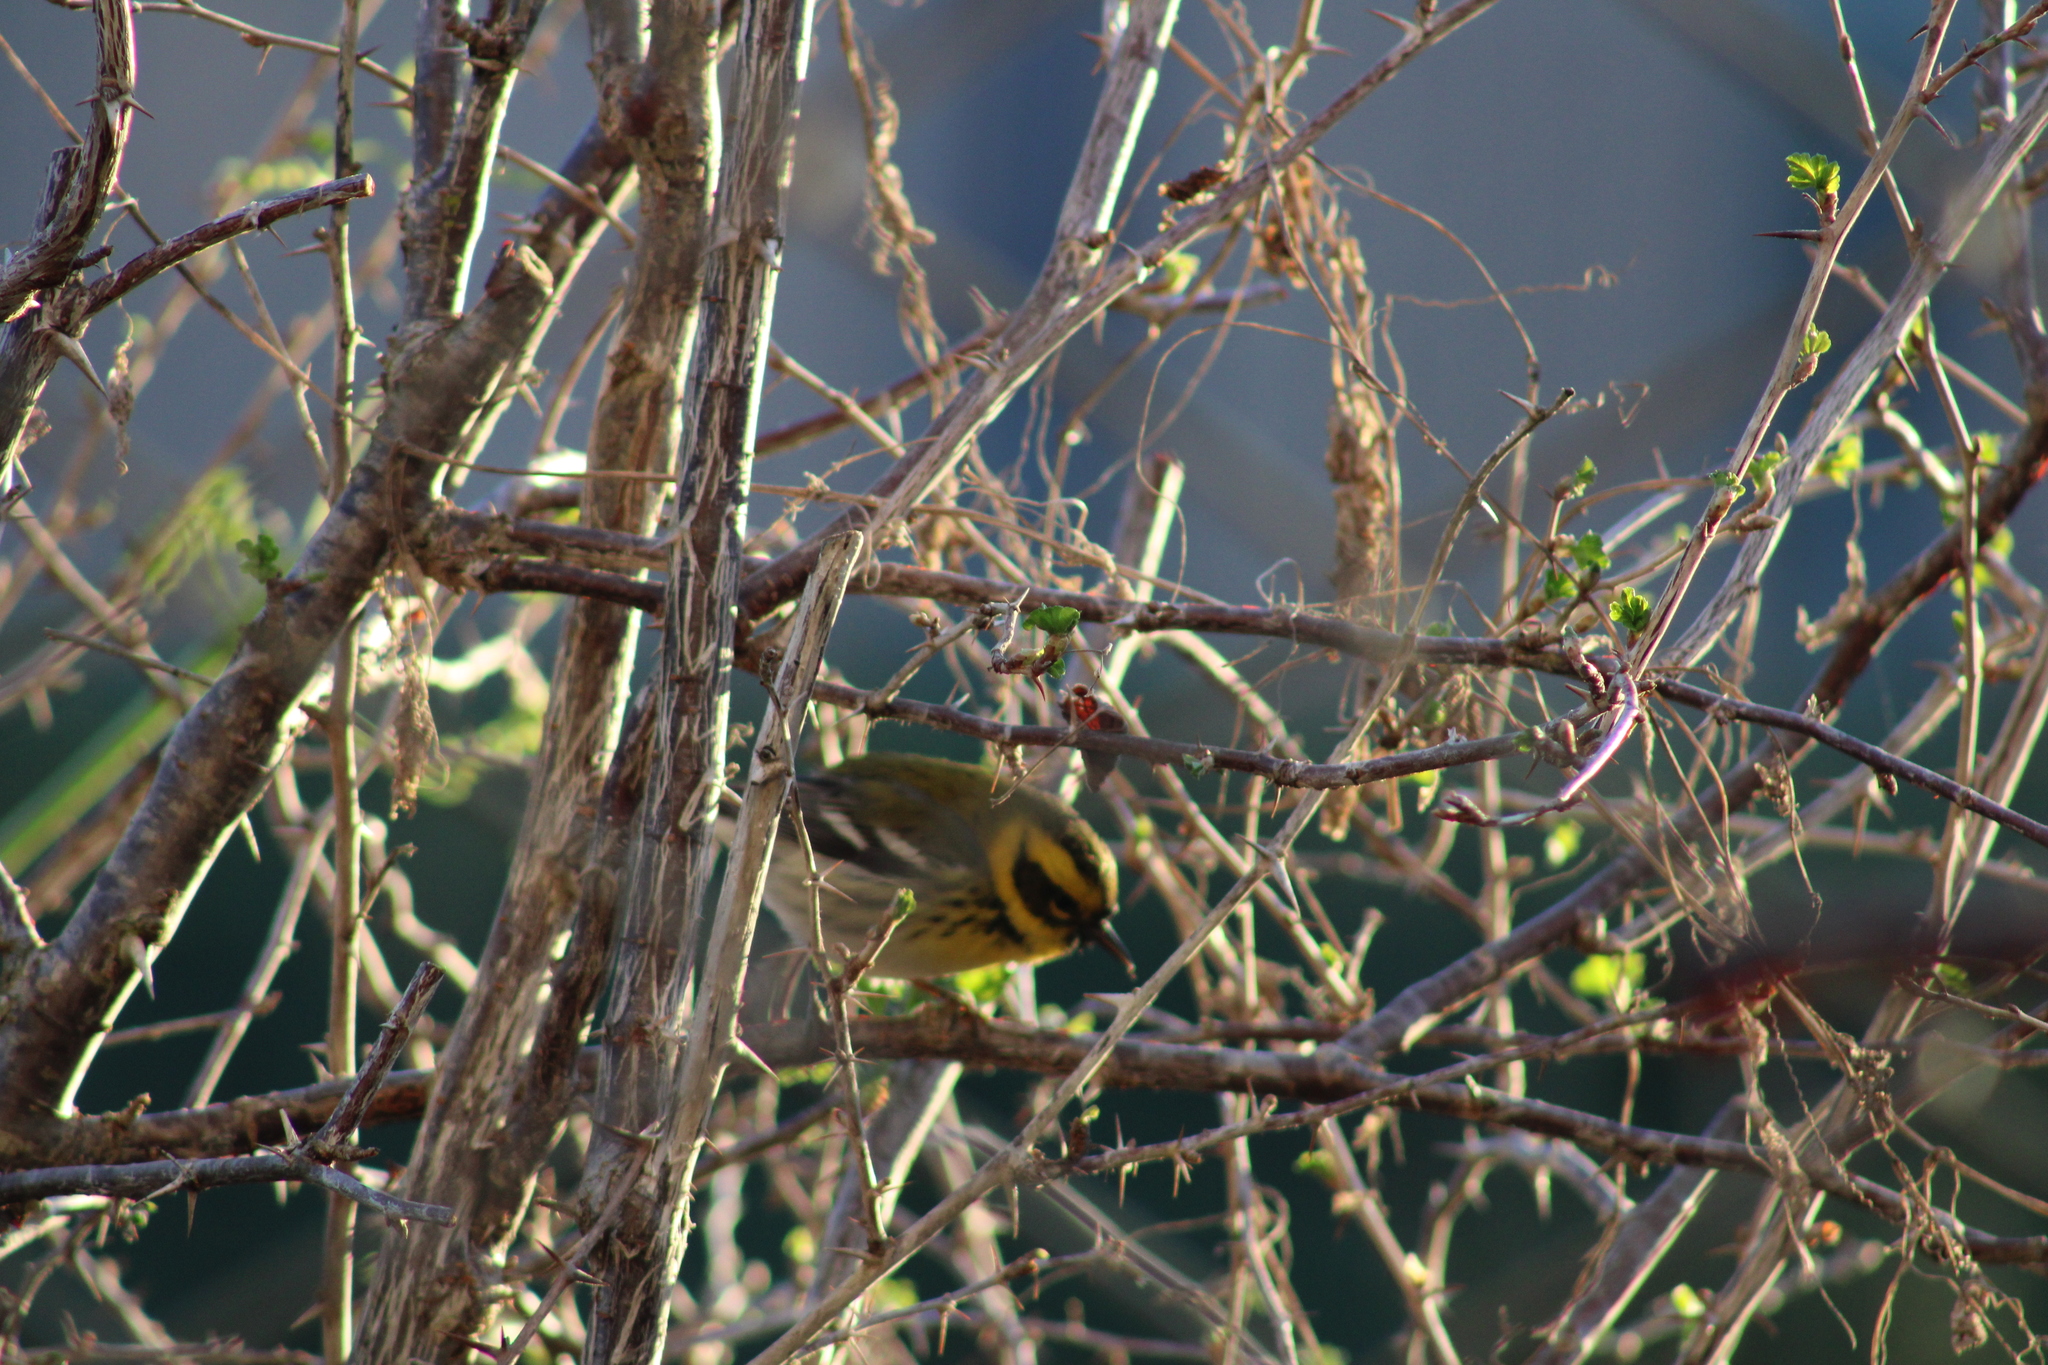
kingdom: Animalia
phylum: Chordata
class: Aves
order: Passeriformes
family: Parulidae
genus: Setophaga
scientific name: Setophaga townsendi
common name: Townsend's warbler
